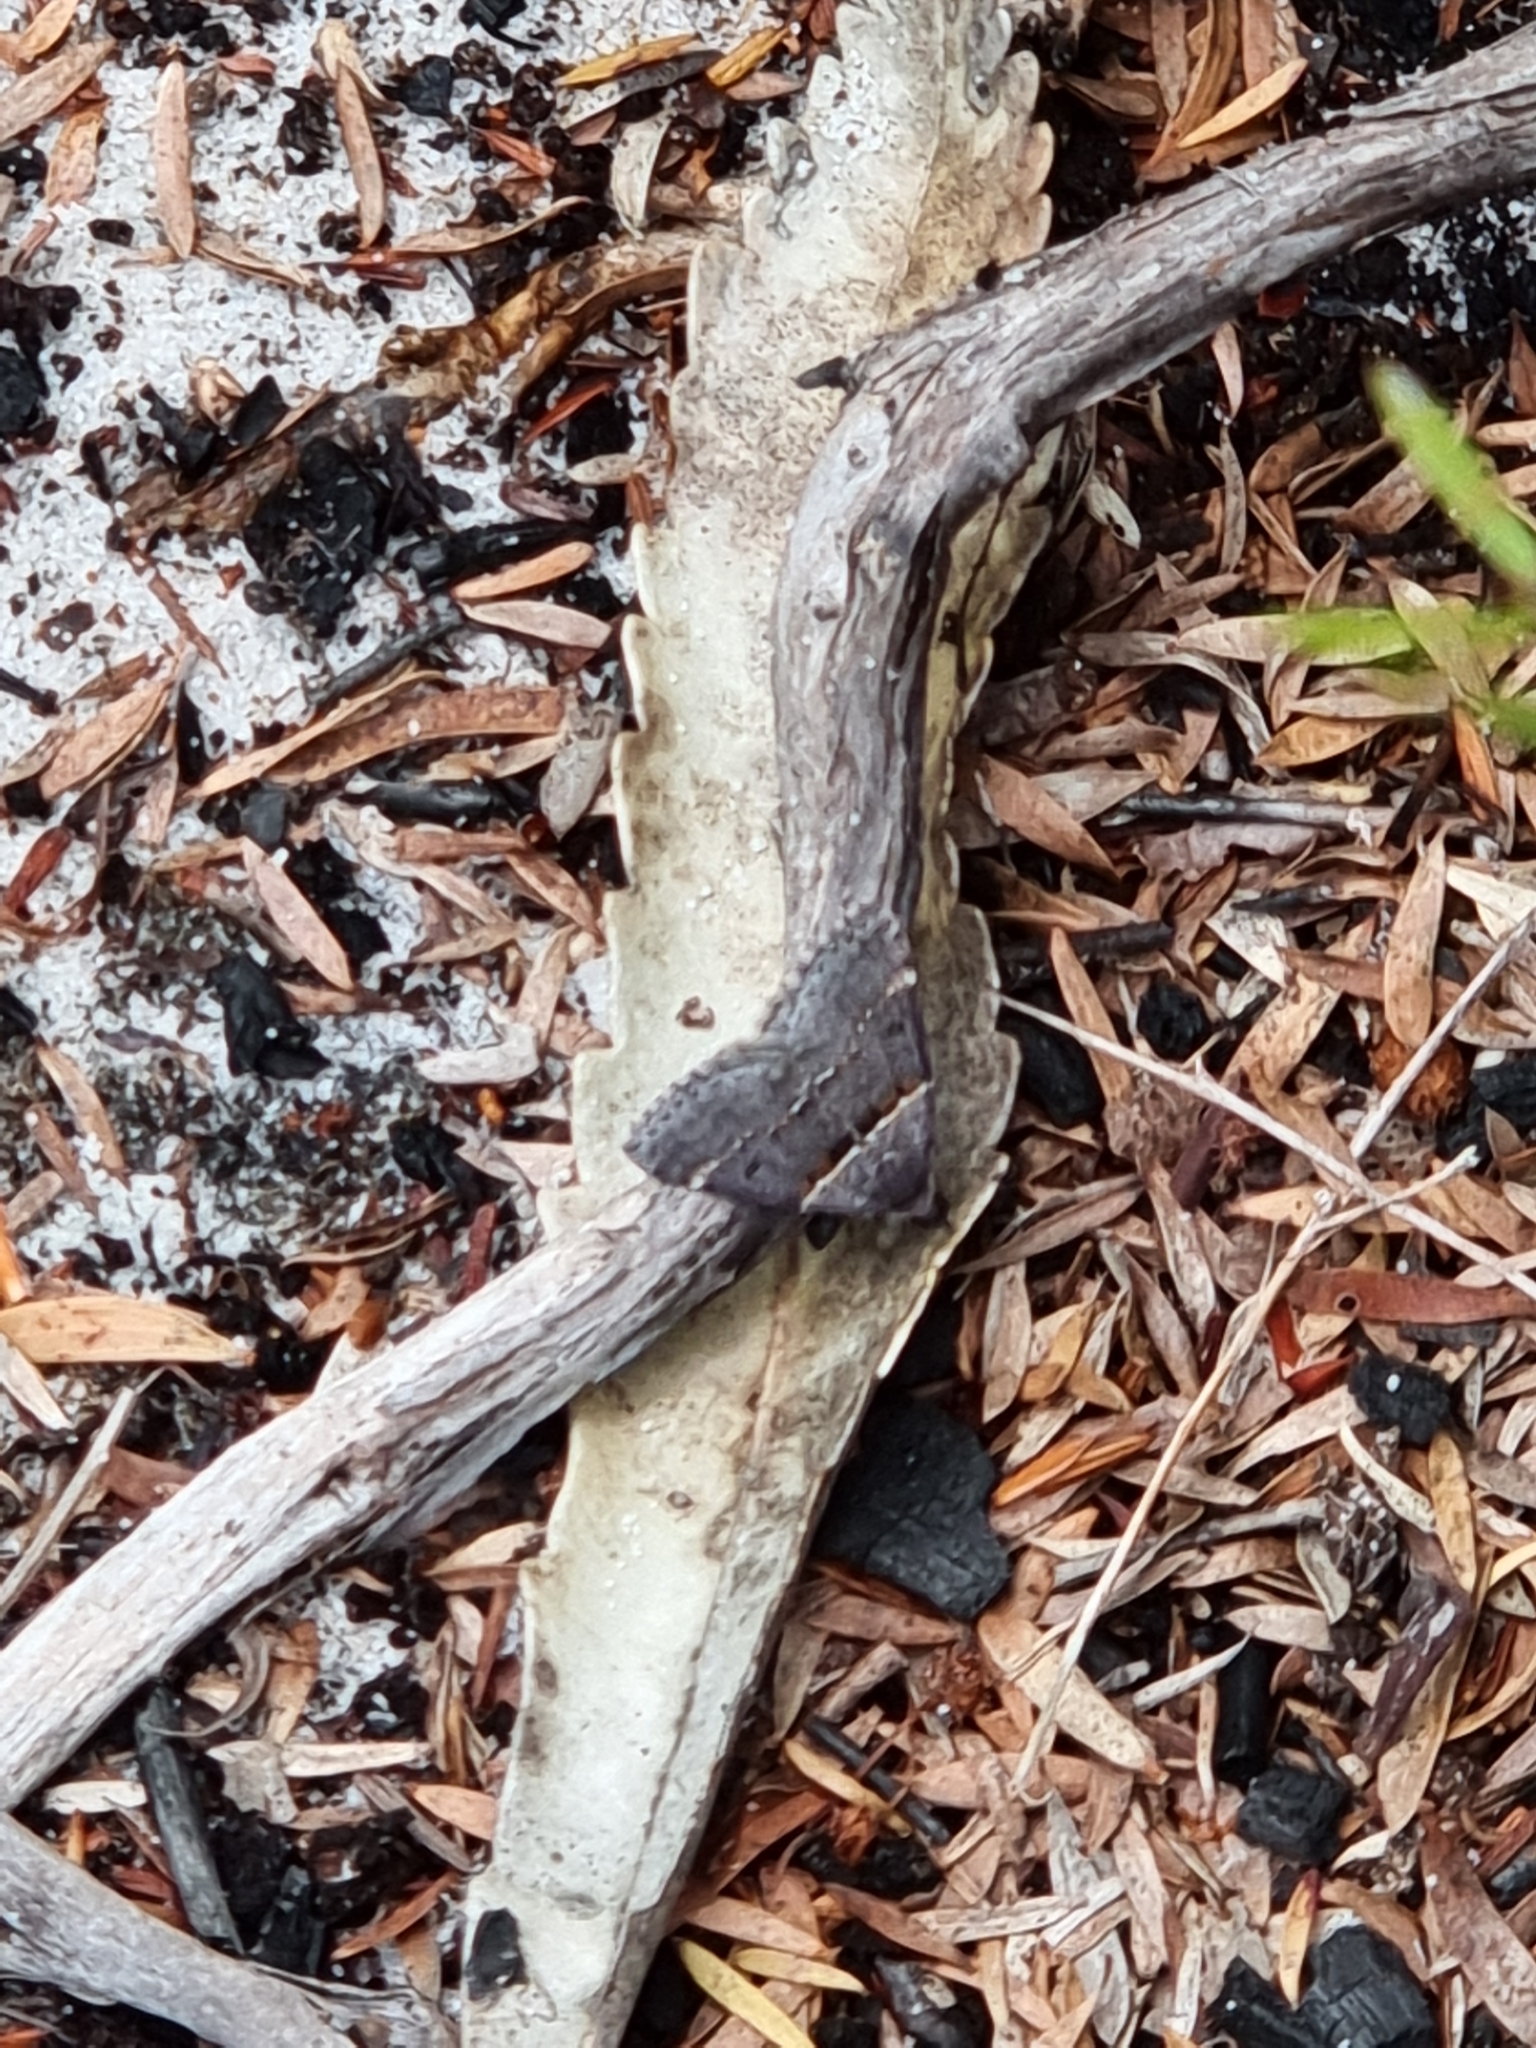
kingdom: Animalia
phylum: Arthropoda
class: Insecta
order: Lepidoptera
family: Geometridae
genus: Dichromodes
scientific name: Dichromodes atrosignata
